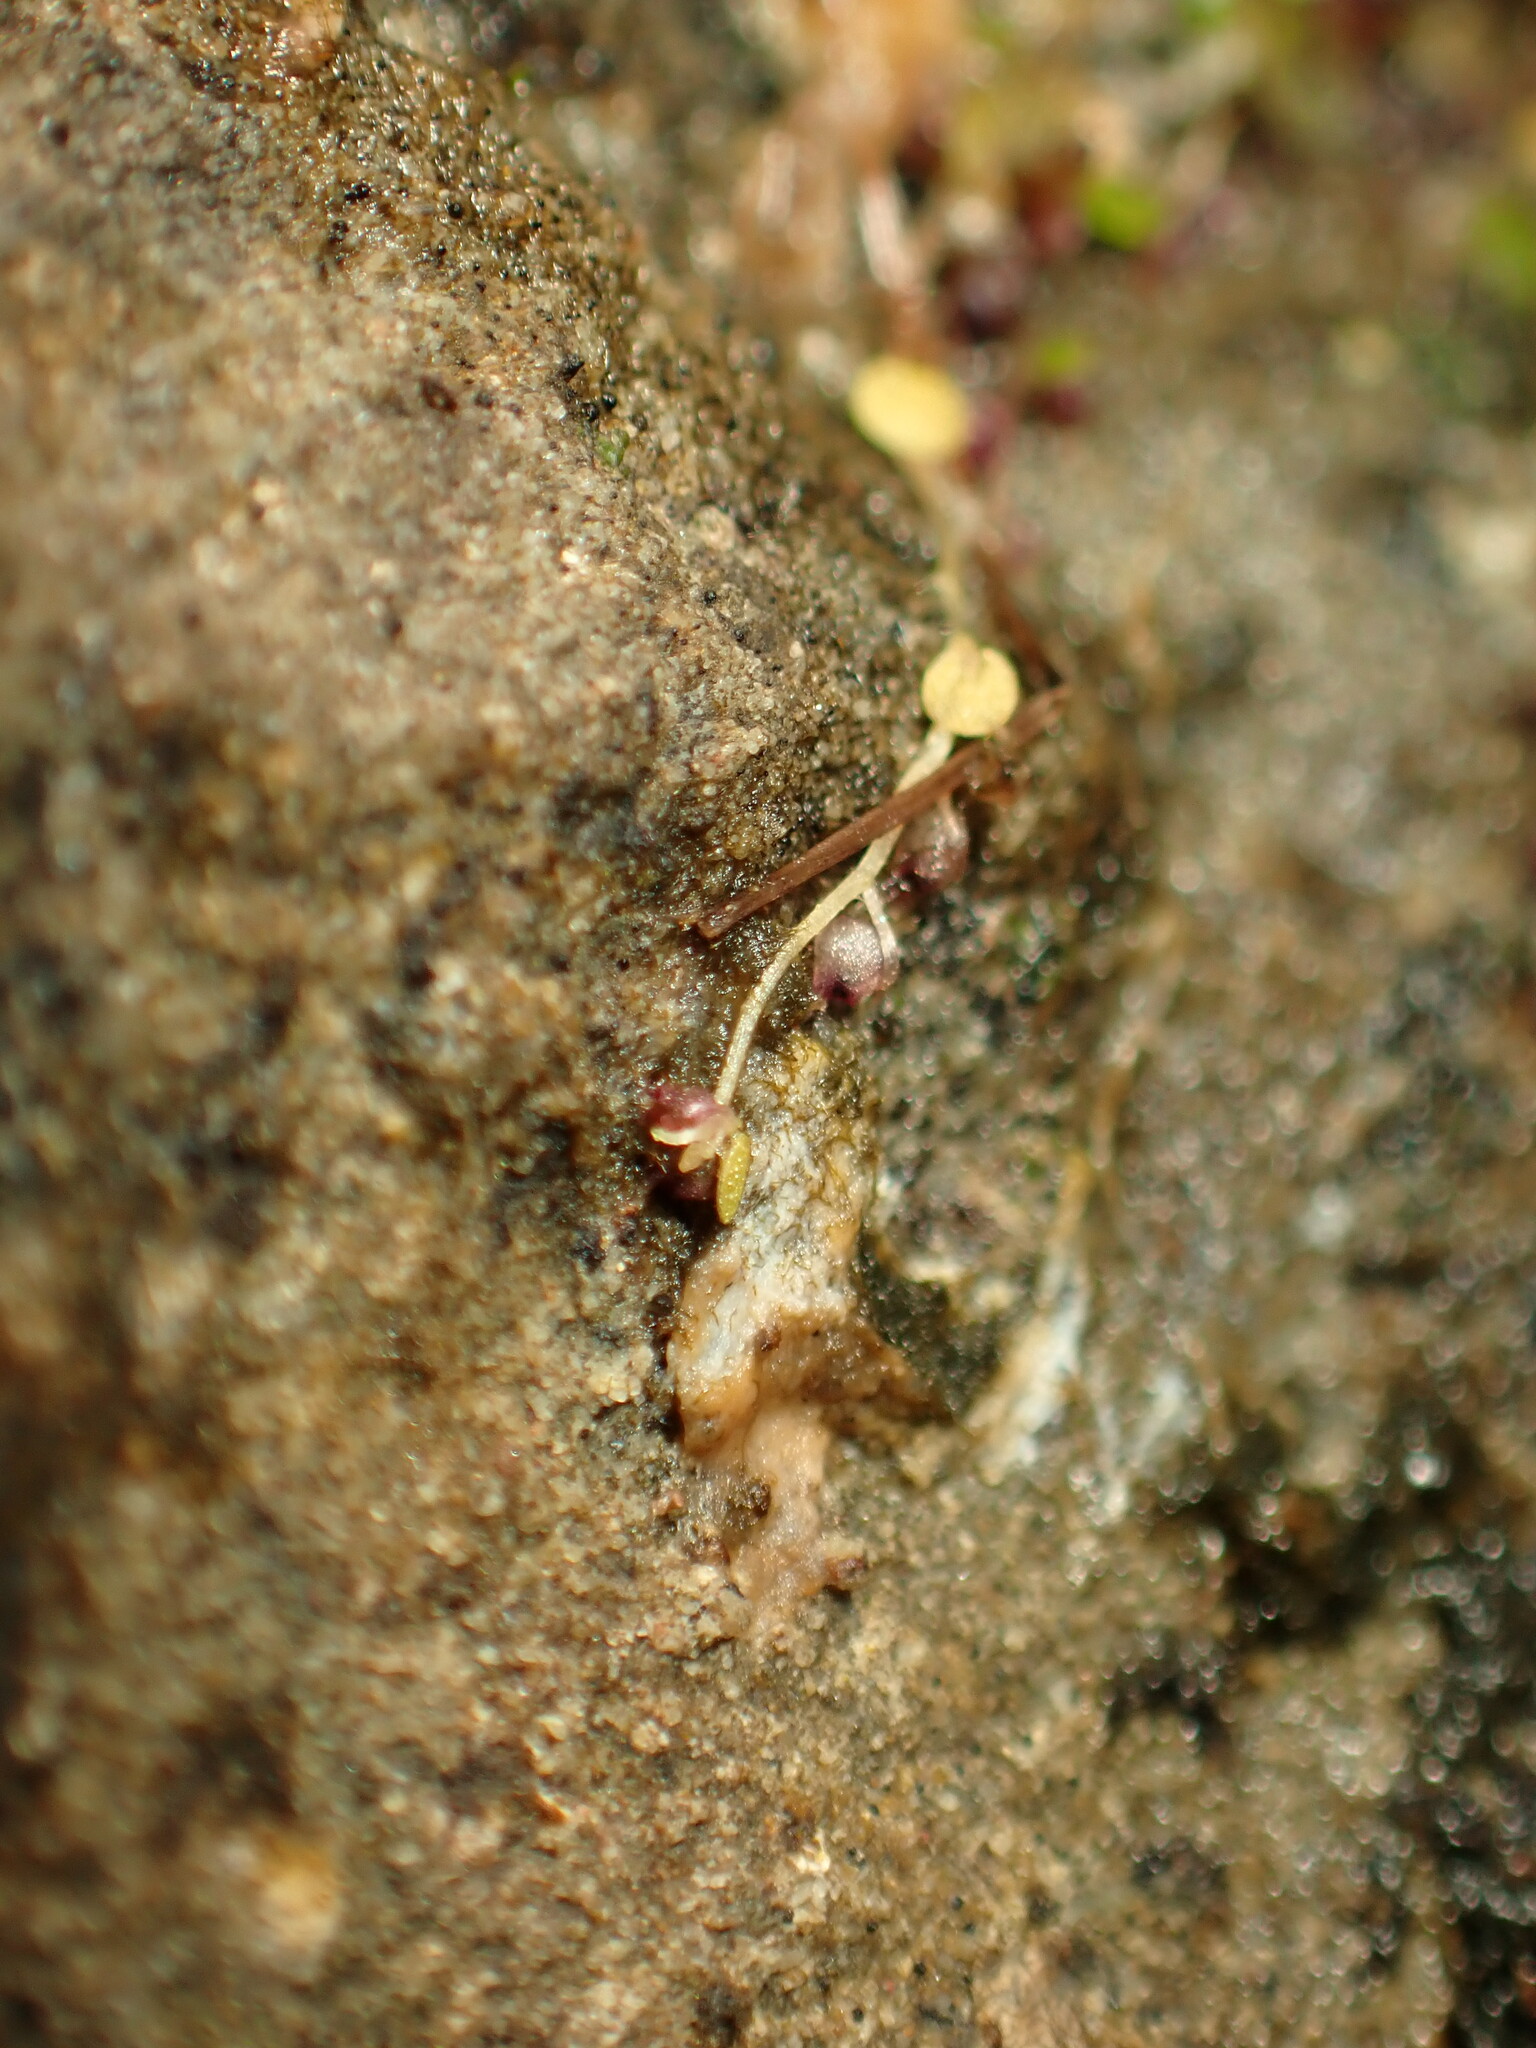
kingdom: Plantae
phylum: Tracheophyta
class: Magnoliopsida
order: Lamiales
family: Lentibulariaceae
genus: Utricularia
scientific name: Utricularia striatula
